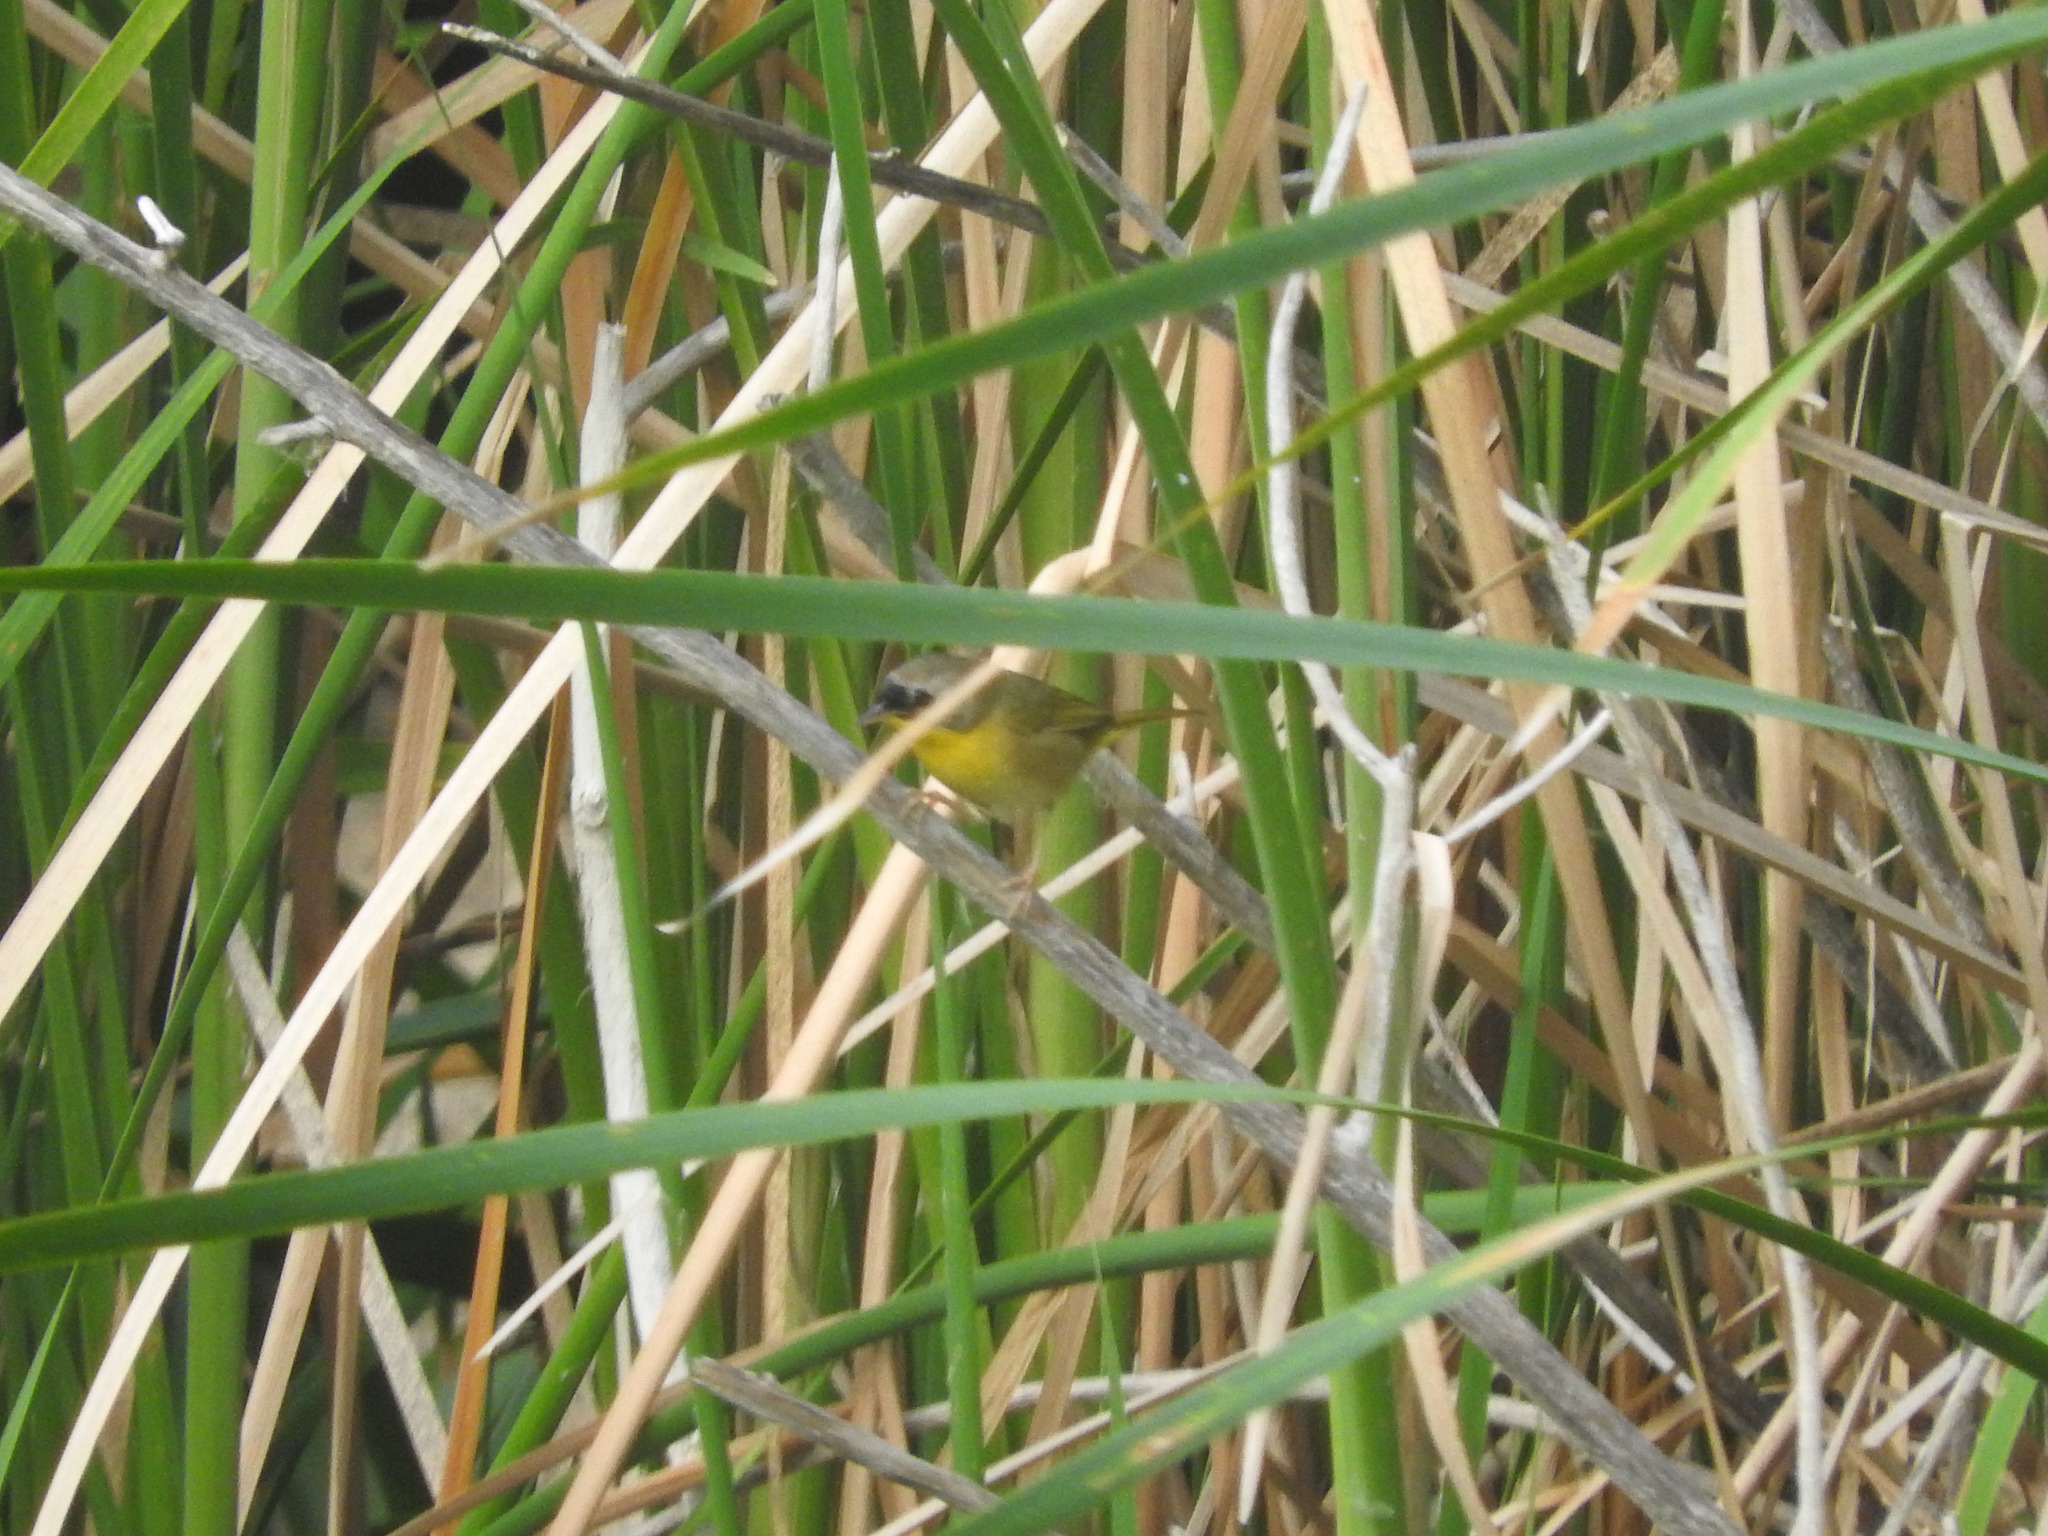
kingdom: Animalia
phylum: Chordata
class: Aves
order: Passeriformes
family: Parulidae
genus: Geothlypis
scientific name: Geothlypis trichas
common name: Common yellowthroat
